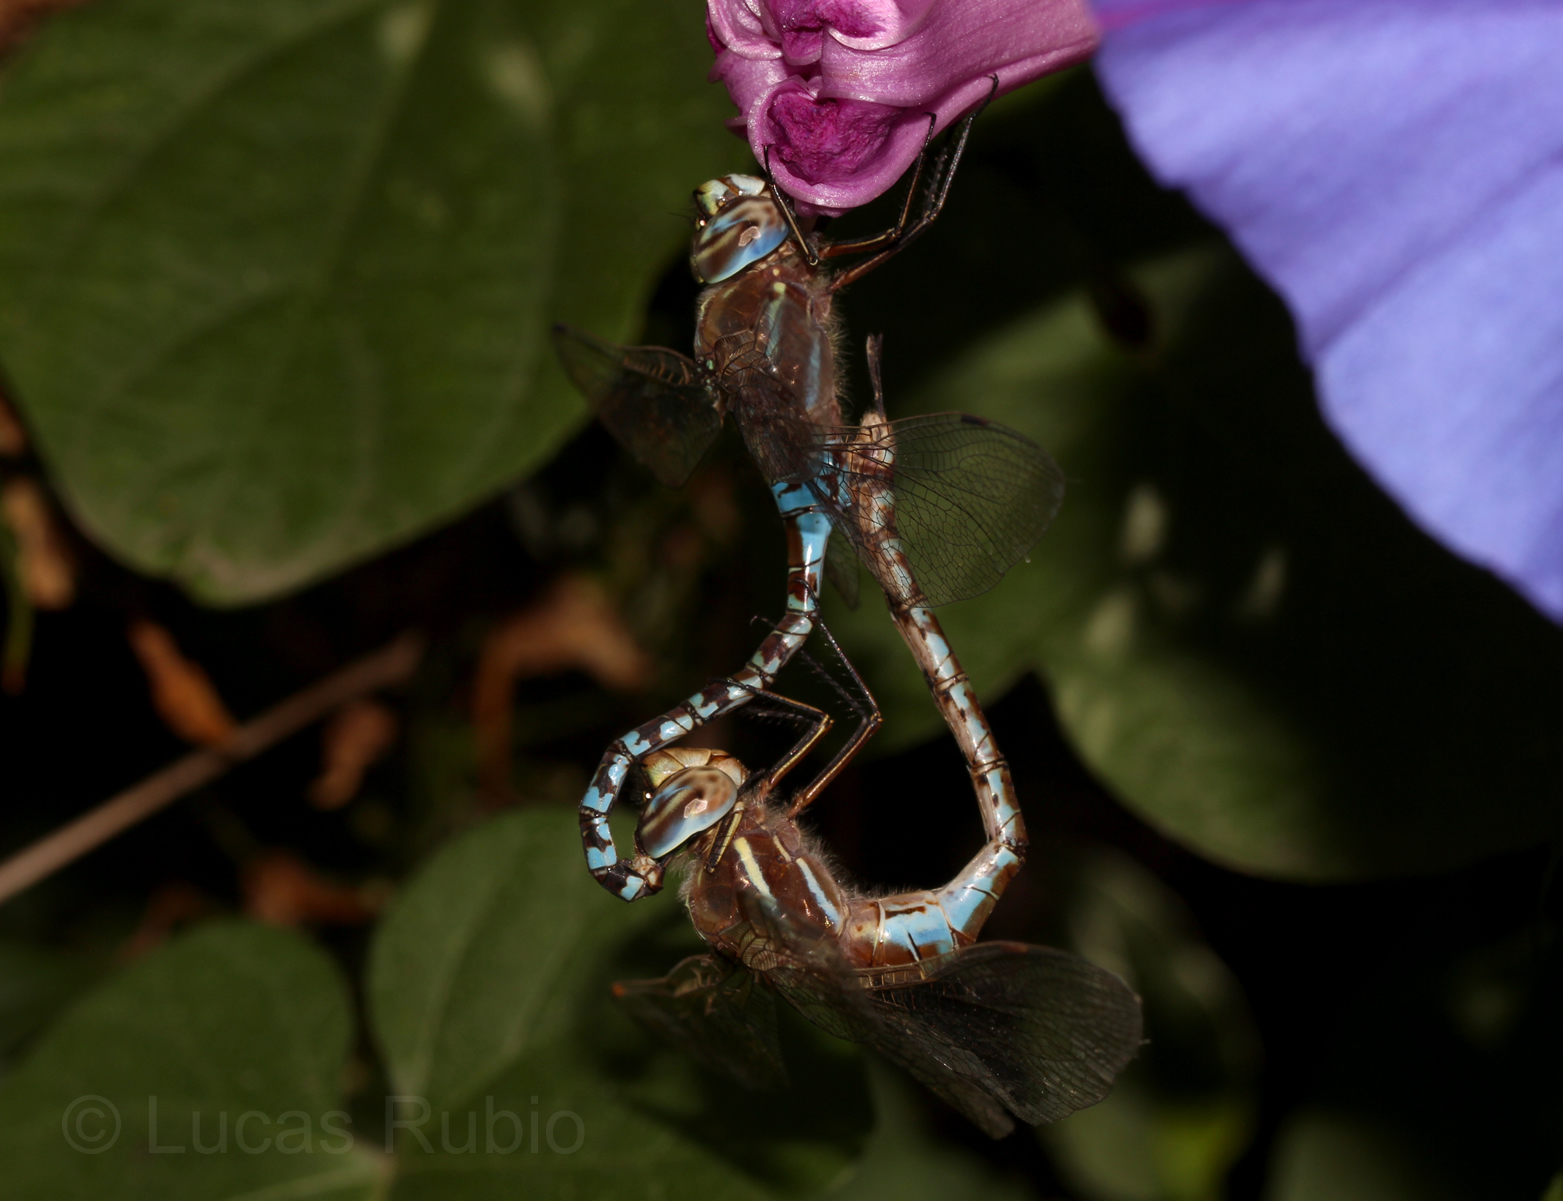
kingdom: Animalia
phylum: Arthropoda
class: Insecta
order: Odonata
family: Aeshnidae
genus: Rhionaeschna
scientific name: Rhionaeschna bonariensis
